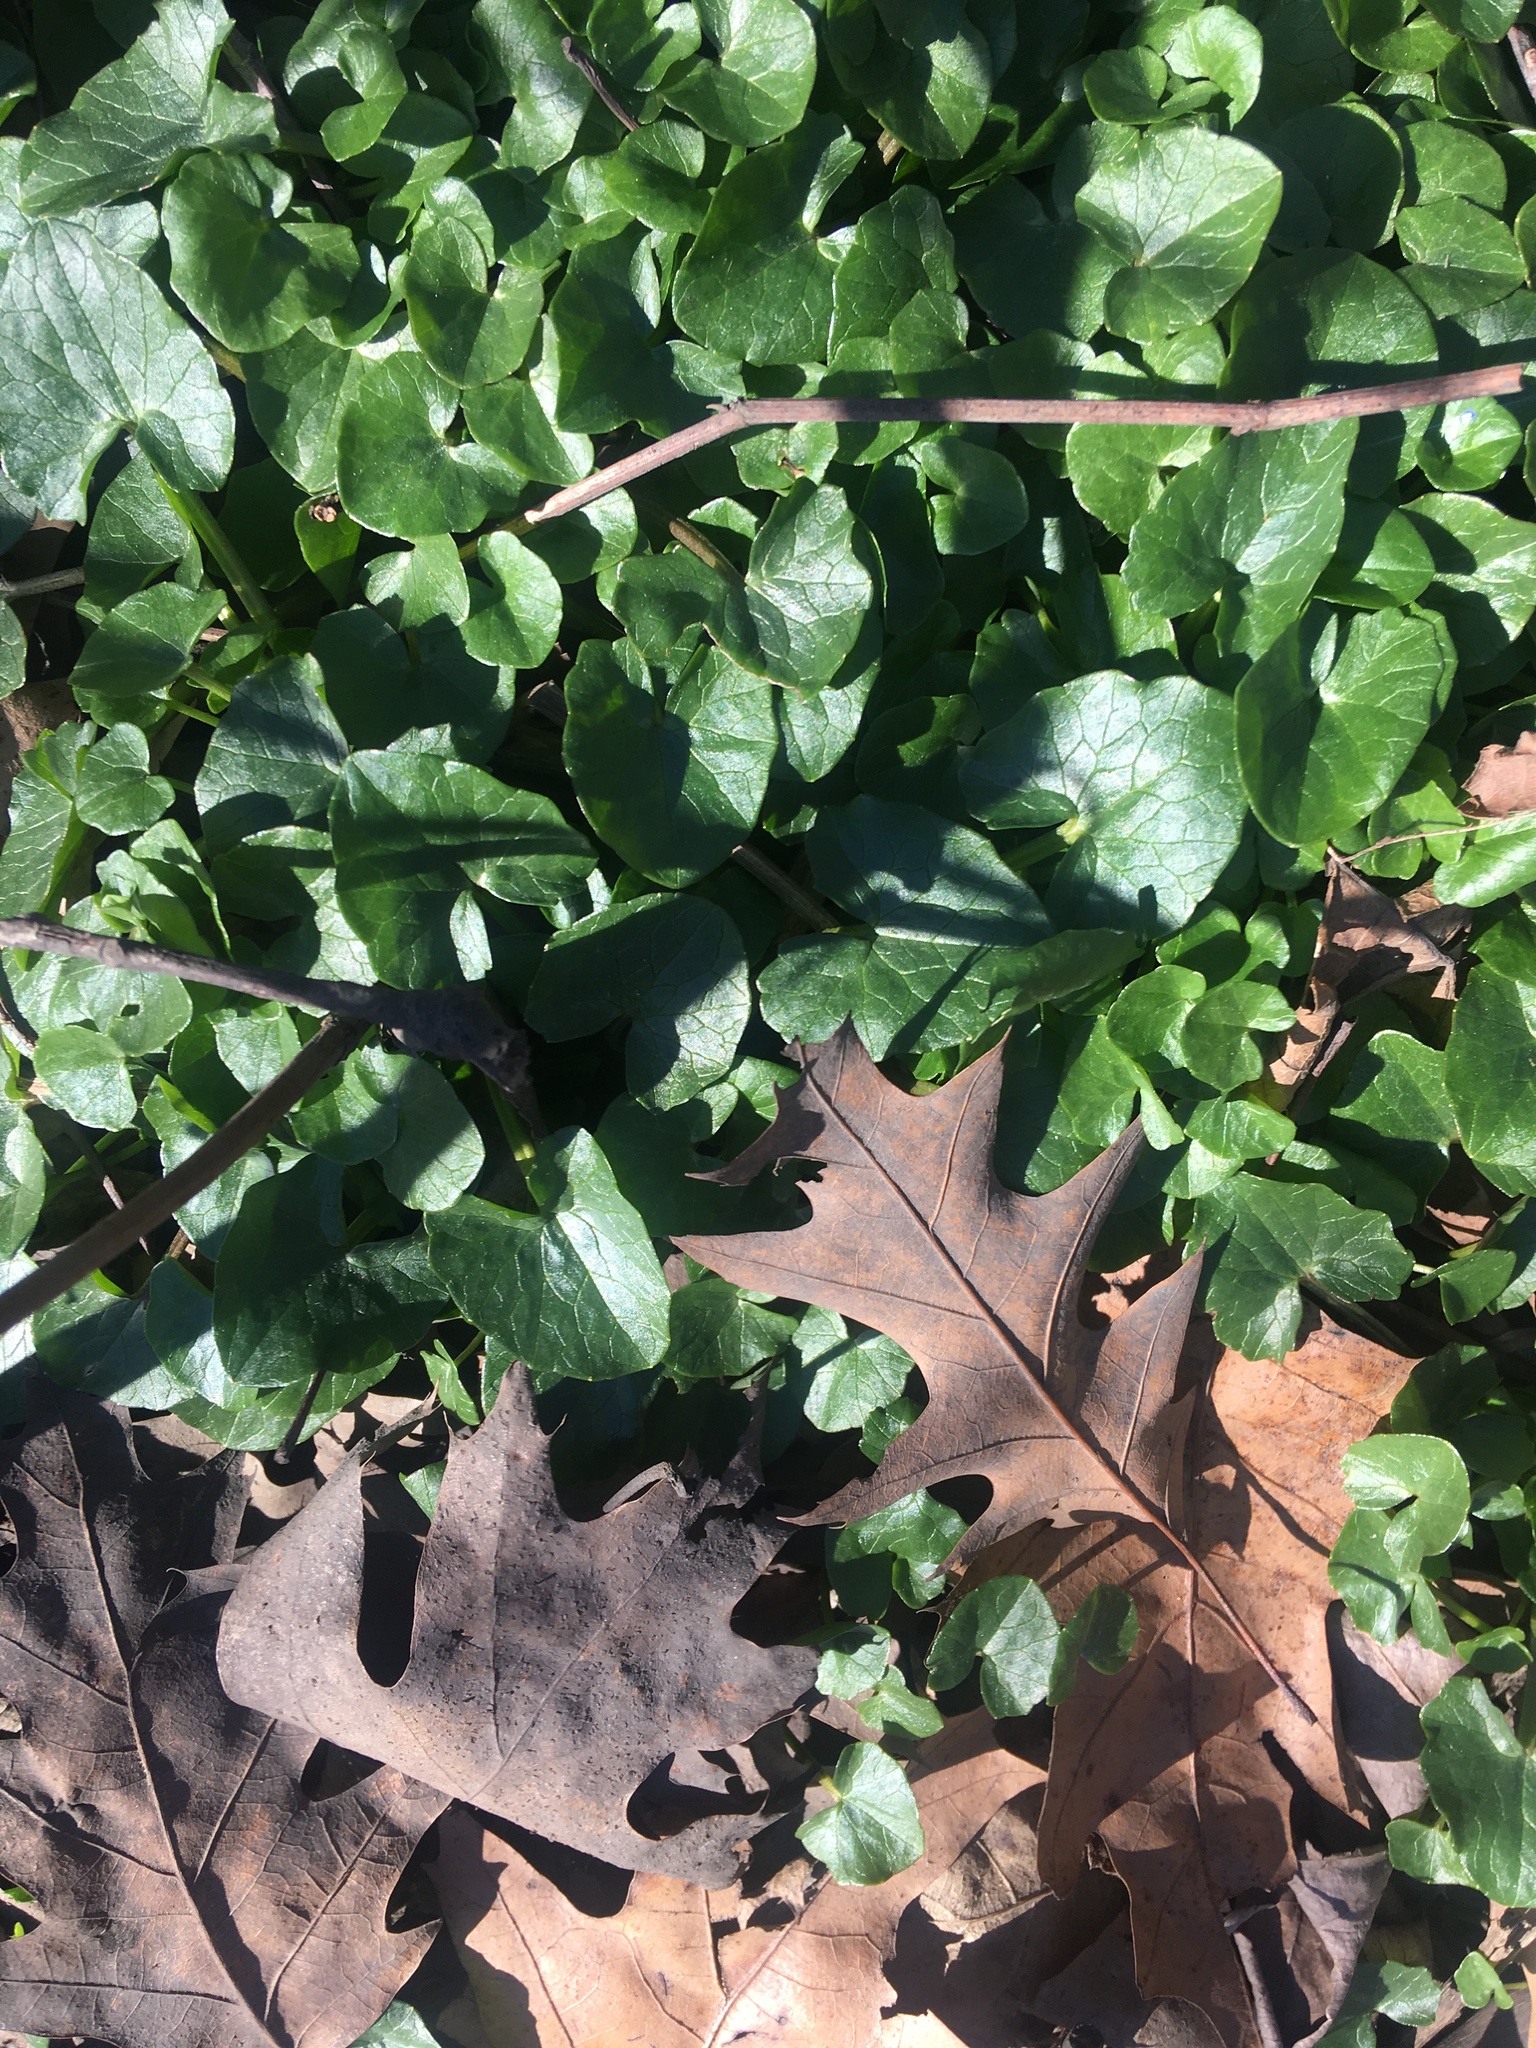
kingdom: Plantae
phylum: Tracheophyta
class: Magnoliopsida
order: Ranunculales
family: Ranunculaceae
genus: Ficaria
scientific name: Ficaria verna
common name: Lesser celandine
